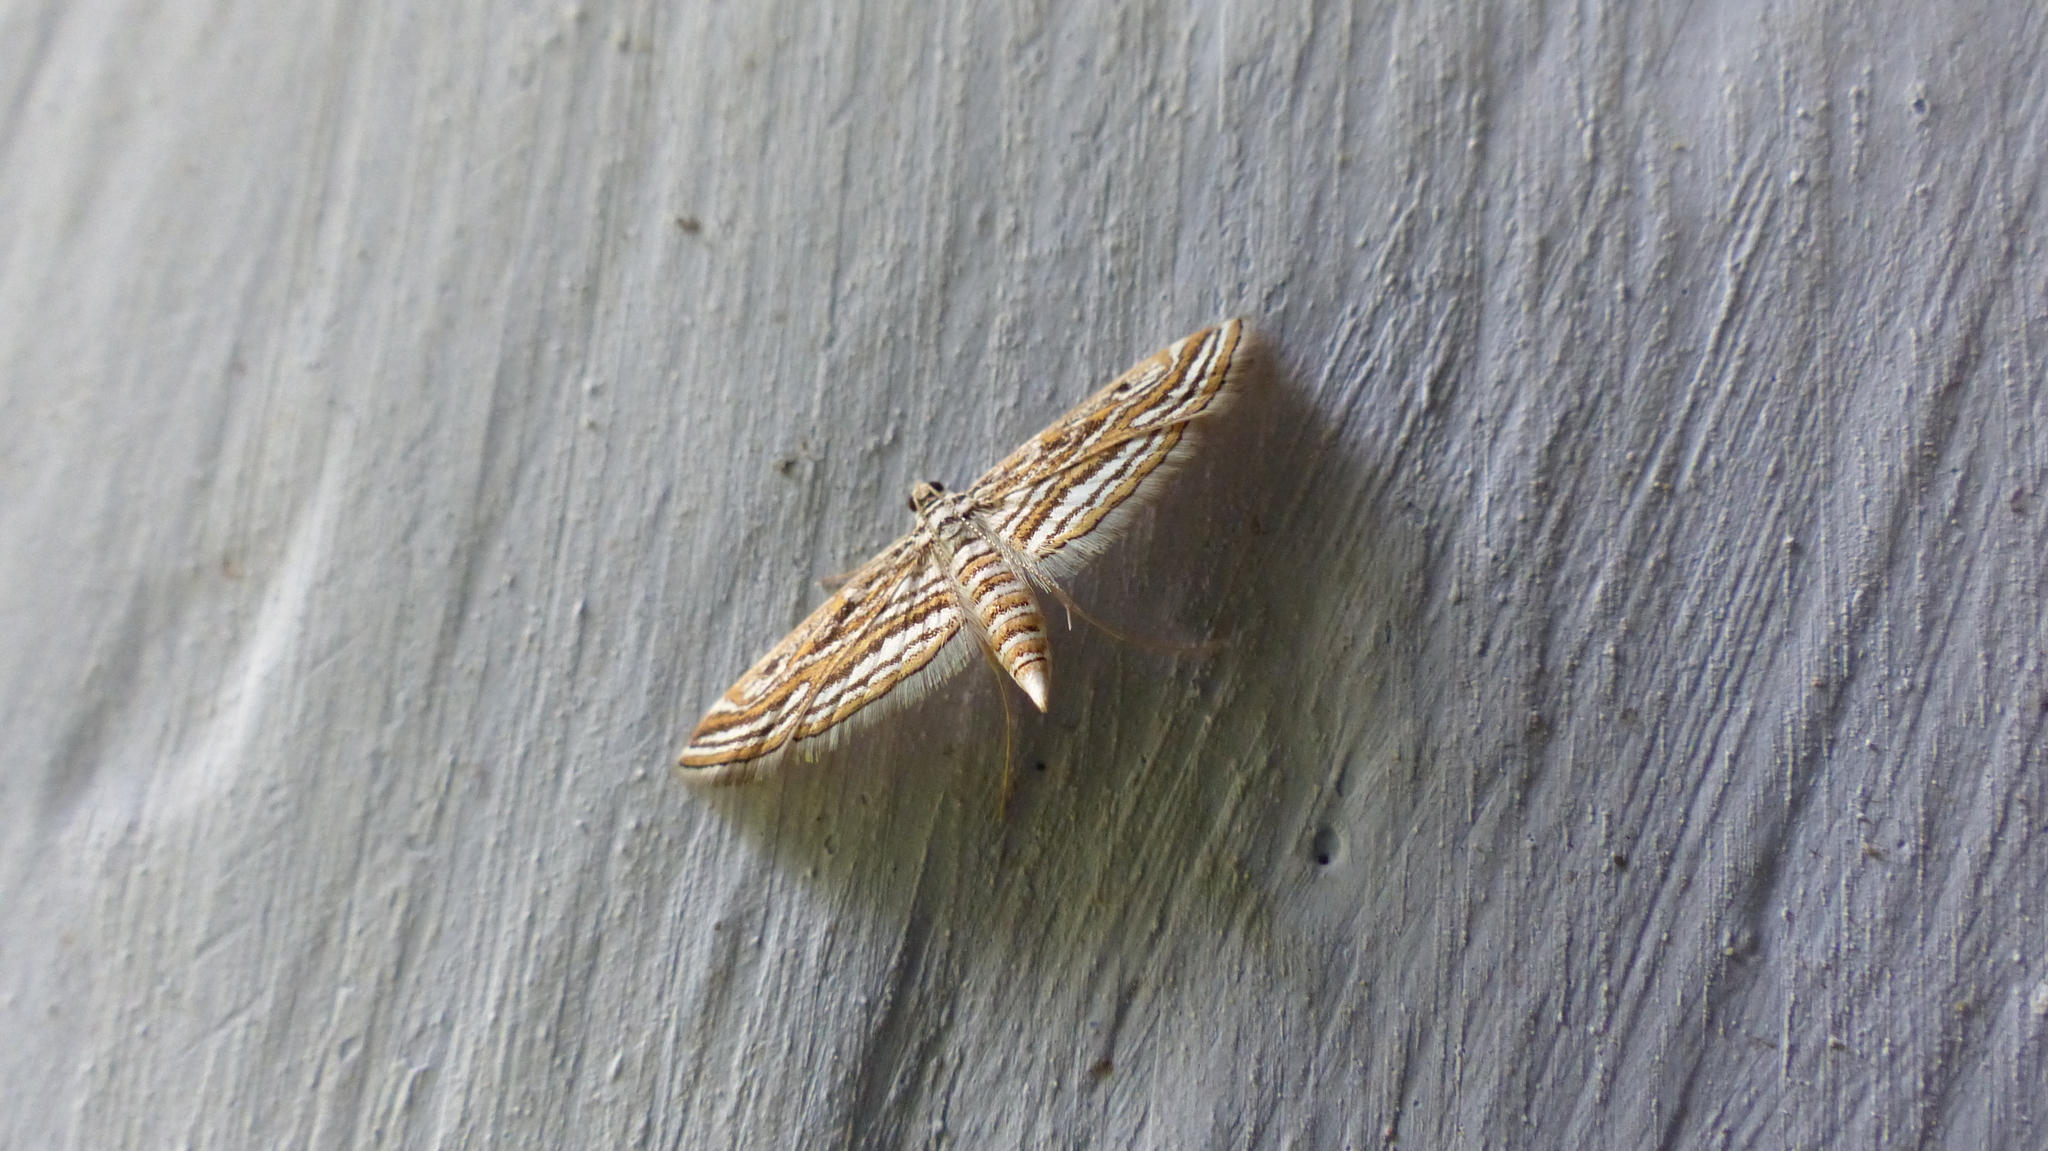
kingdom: Animalia
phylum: Arthropoda
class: Insecta
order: Lepidoptera
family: Crambidae
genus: Parapoynx
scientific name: Parapoynx fluctuosalis
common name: Moth
